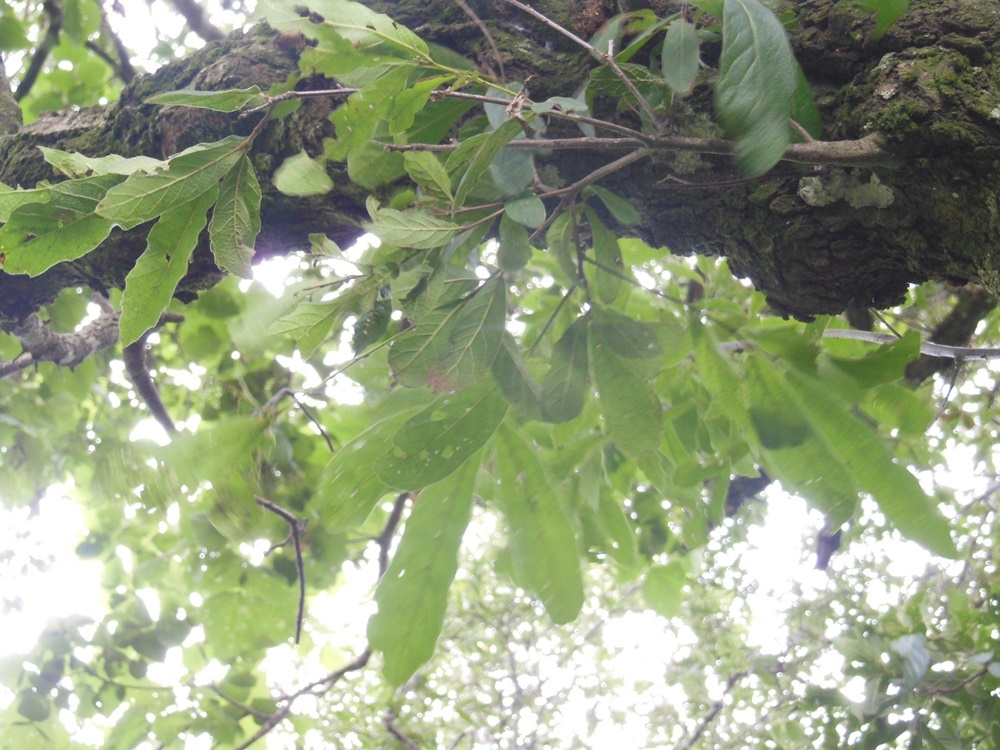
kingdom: Plantae
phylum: Tracheophyta
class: Magnoliopsida
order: Fagales
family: Fagaceae
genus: Quercus
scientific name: Quercus castanea
